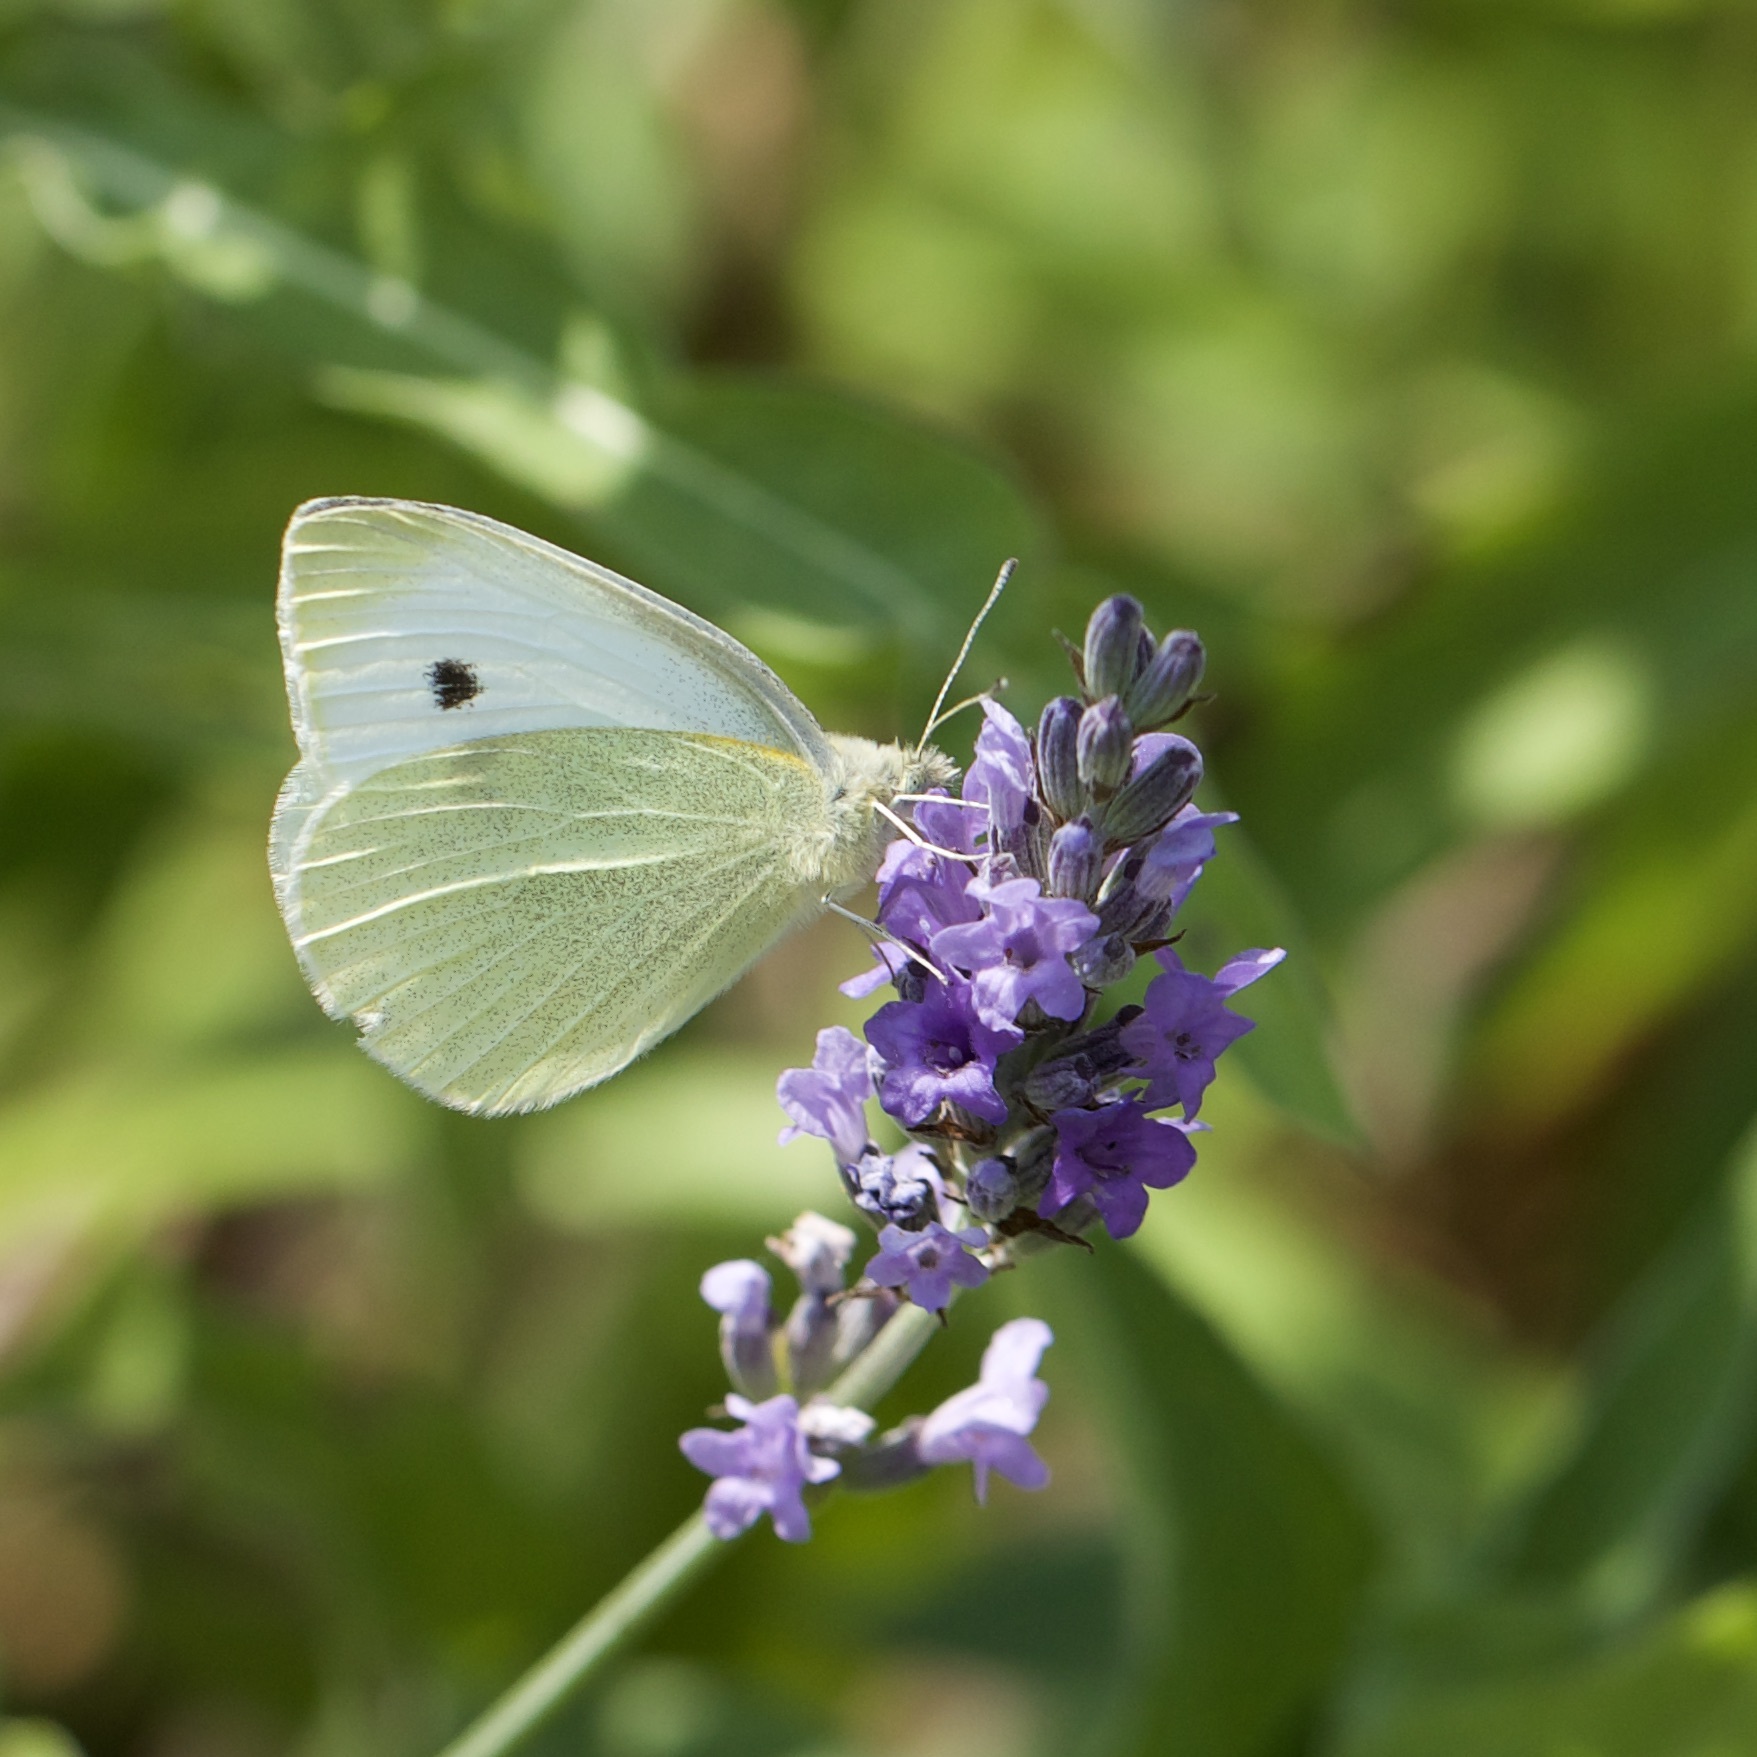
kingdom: Animalia
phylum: Arthropoda
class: Insecta
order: Lepidoptera
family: Pieridae
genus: Pieris
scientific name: Pieris rapae
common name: Small white
